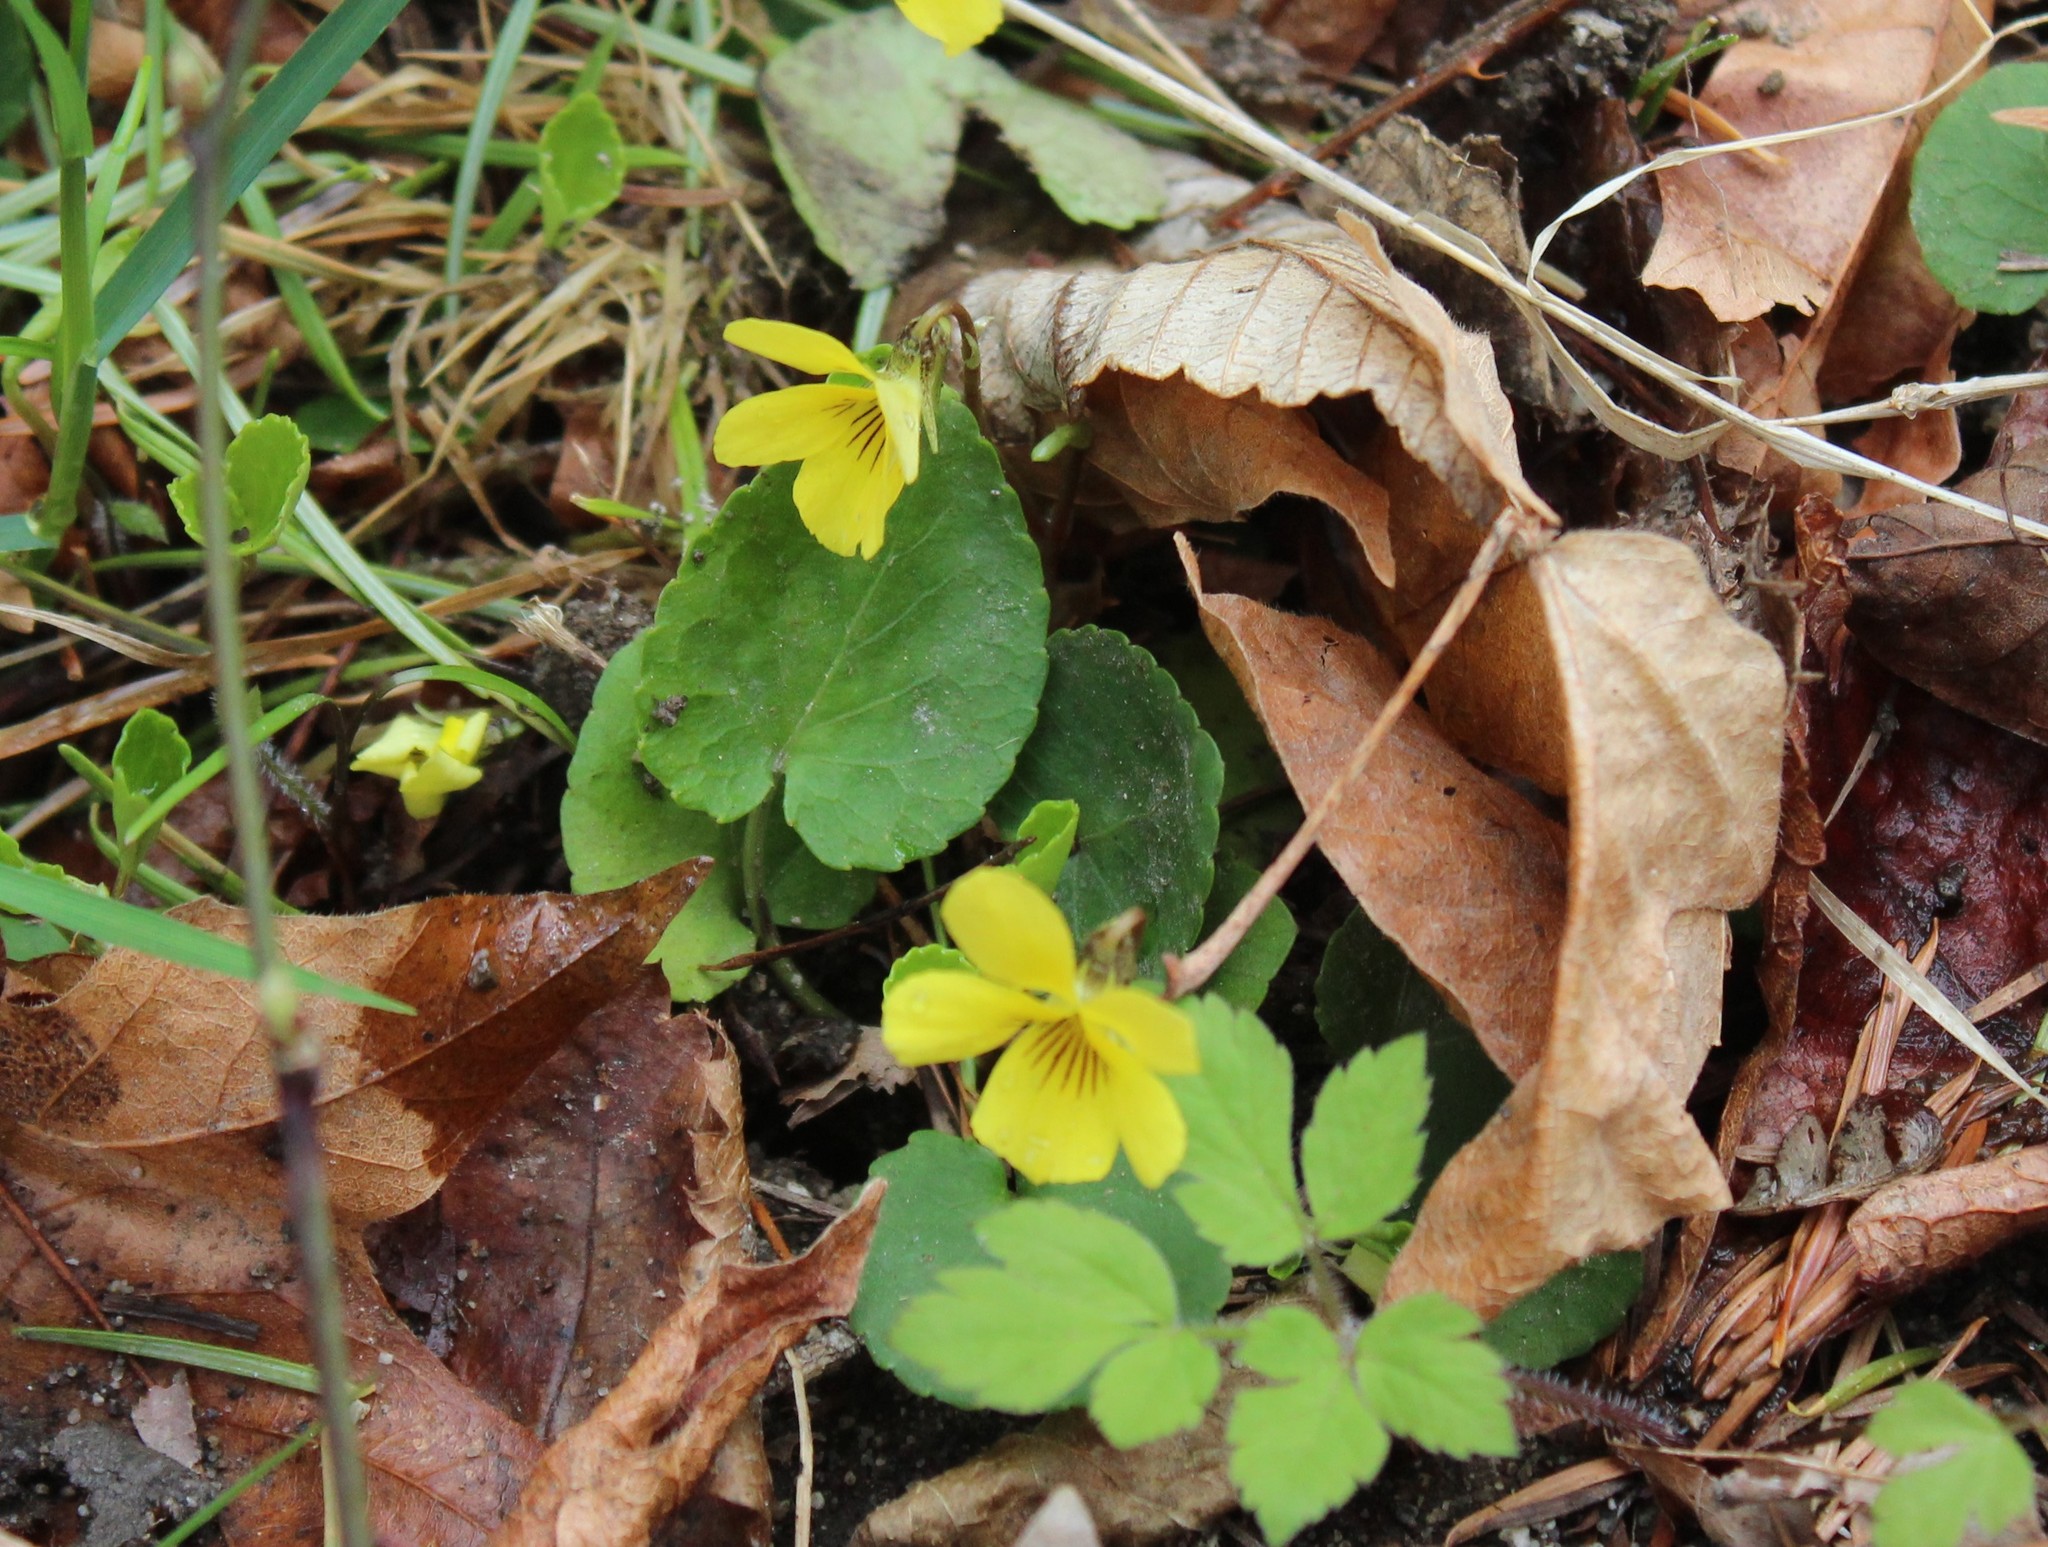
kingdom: Plantae
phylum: Tracheophyta
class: Magnoliopsida
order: Malpighiales
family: Violaceae
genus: Viola
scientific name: Viola sempervirens
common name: Evergreen violet
